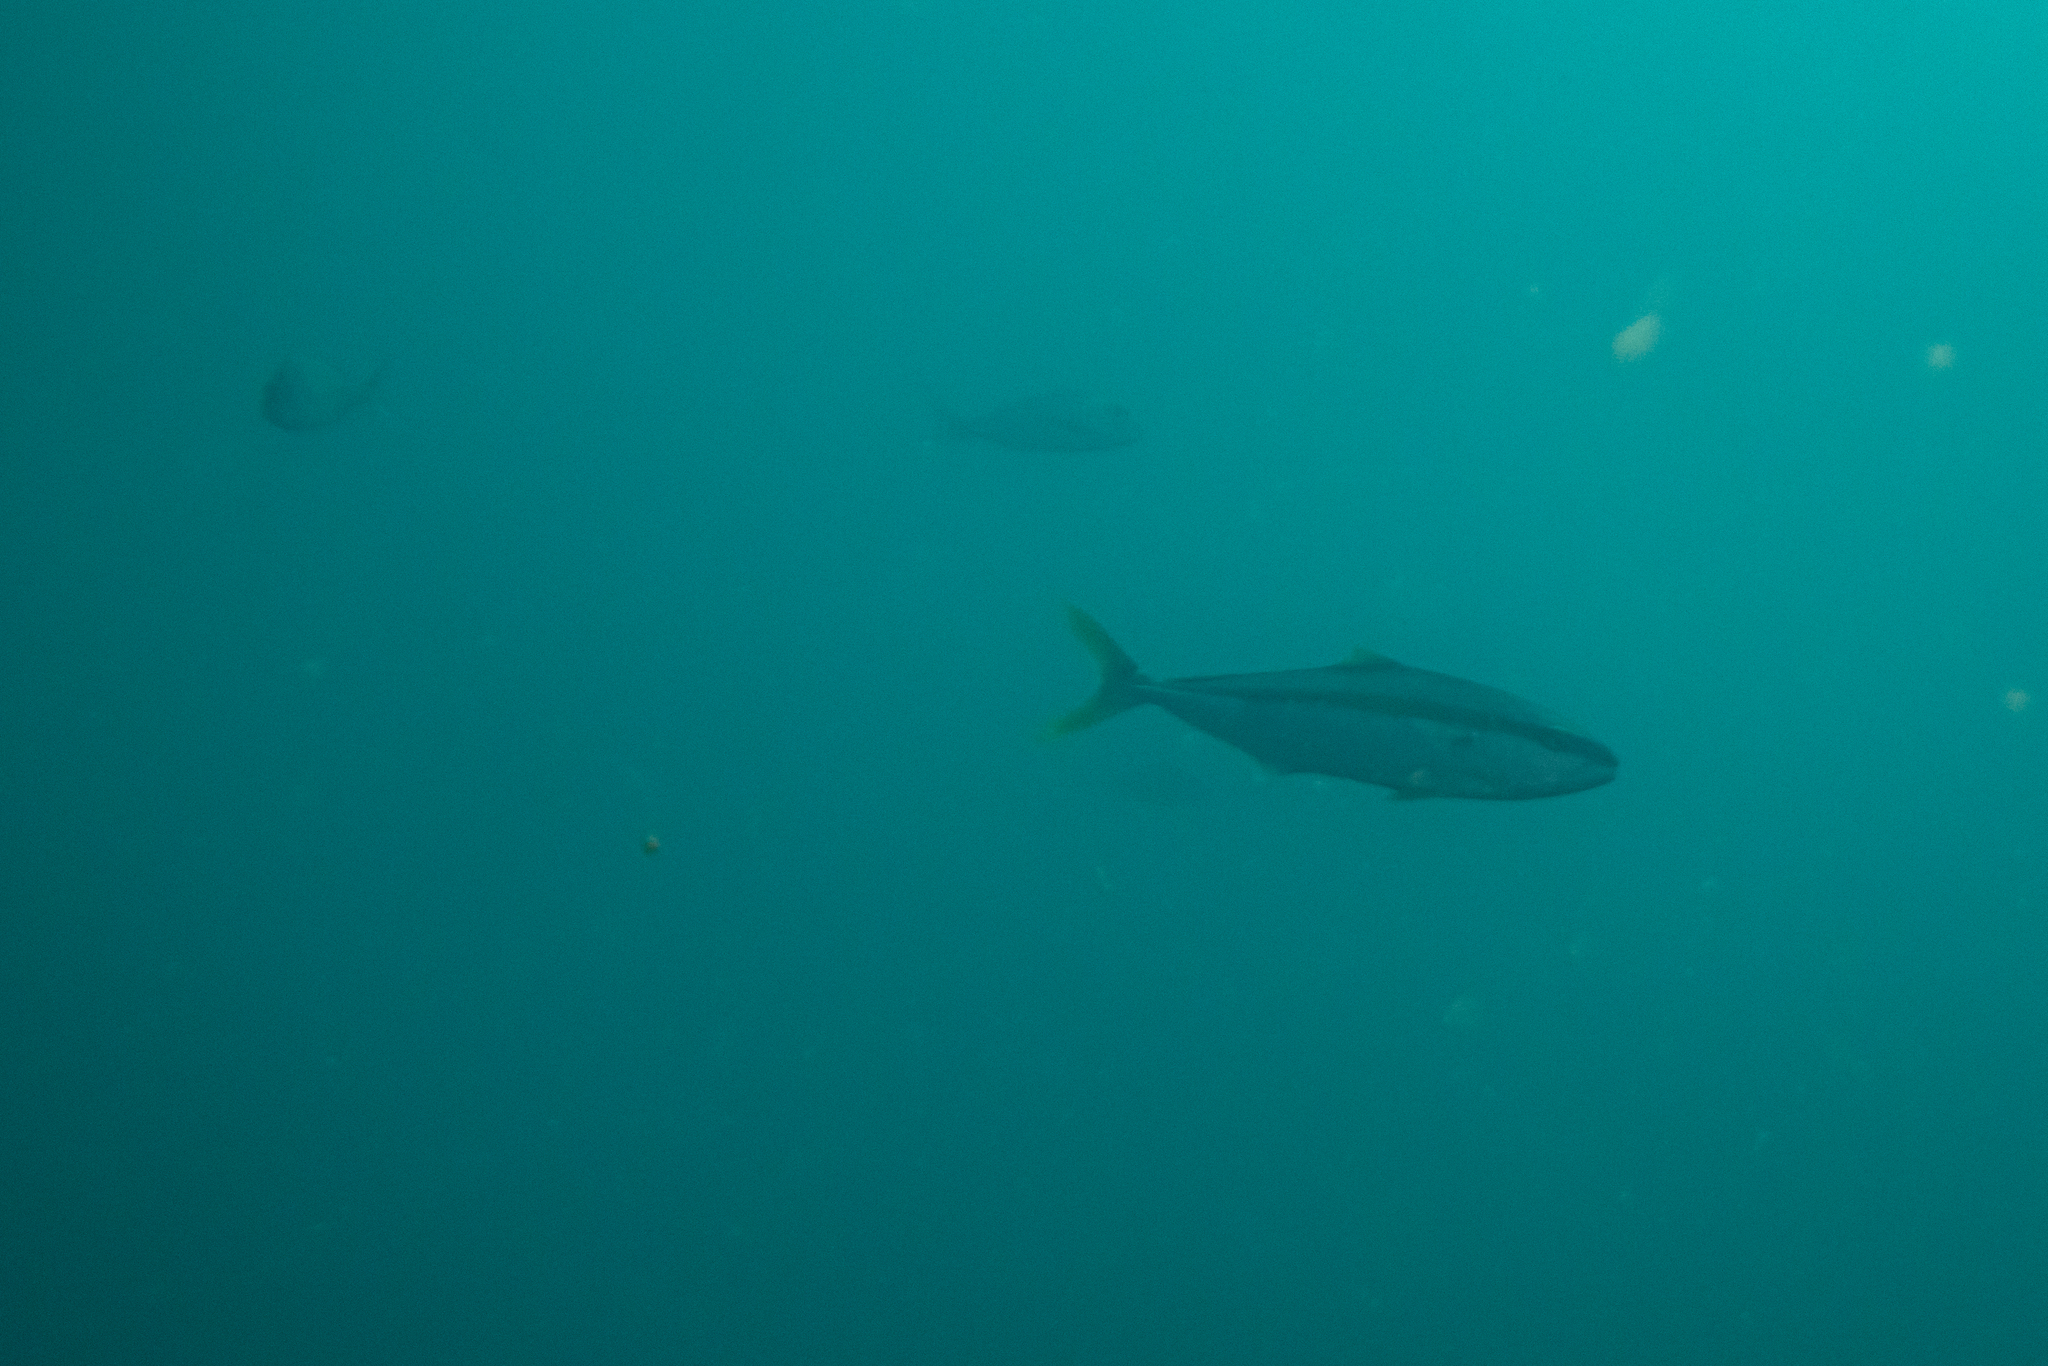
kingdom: Animalia
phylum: Chordata
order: Perciformes
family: Carangidae
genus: Seriola
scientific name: Seriola lalandi
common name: Yellowtail kingfish
